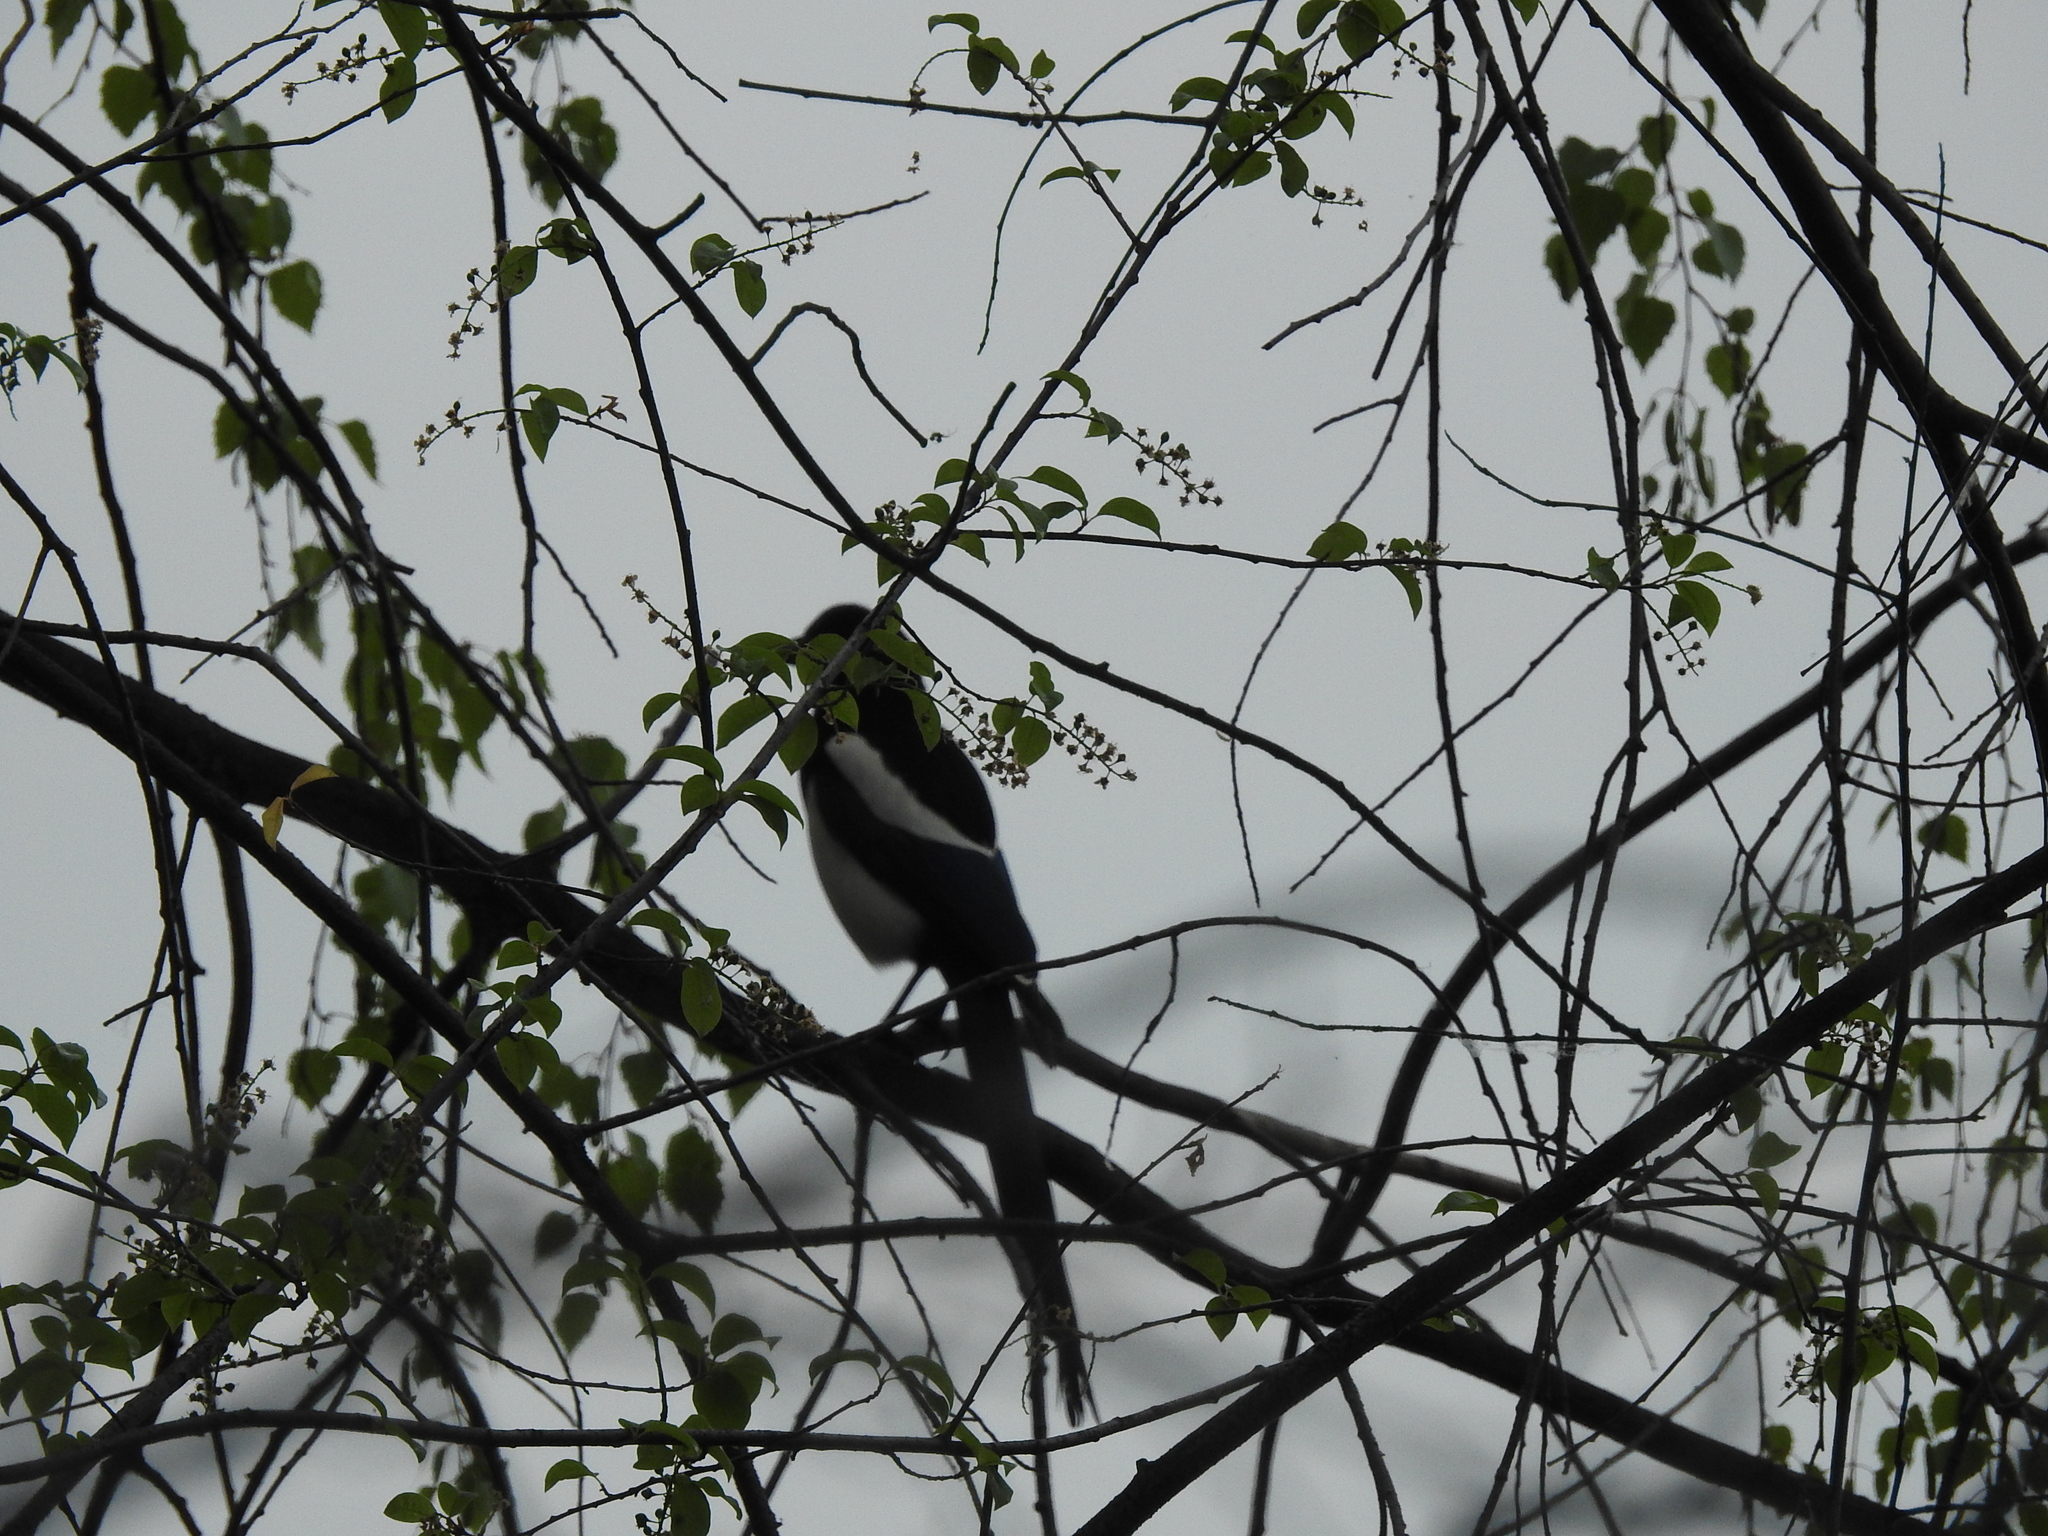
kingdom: Animalia
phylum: Chordata
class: Aves
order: Passeriformes
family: Corvidae
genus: Pica
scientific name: Pica pica
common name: Eurasian magpie
